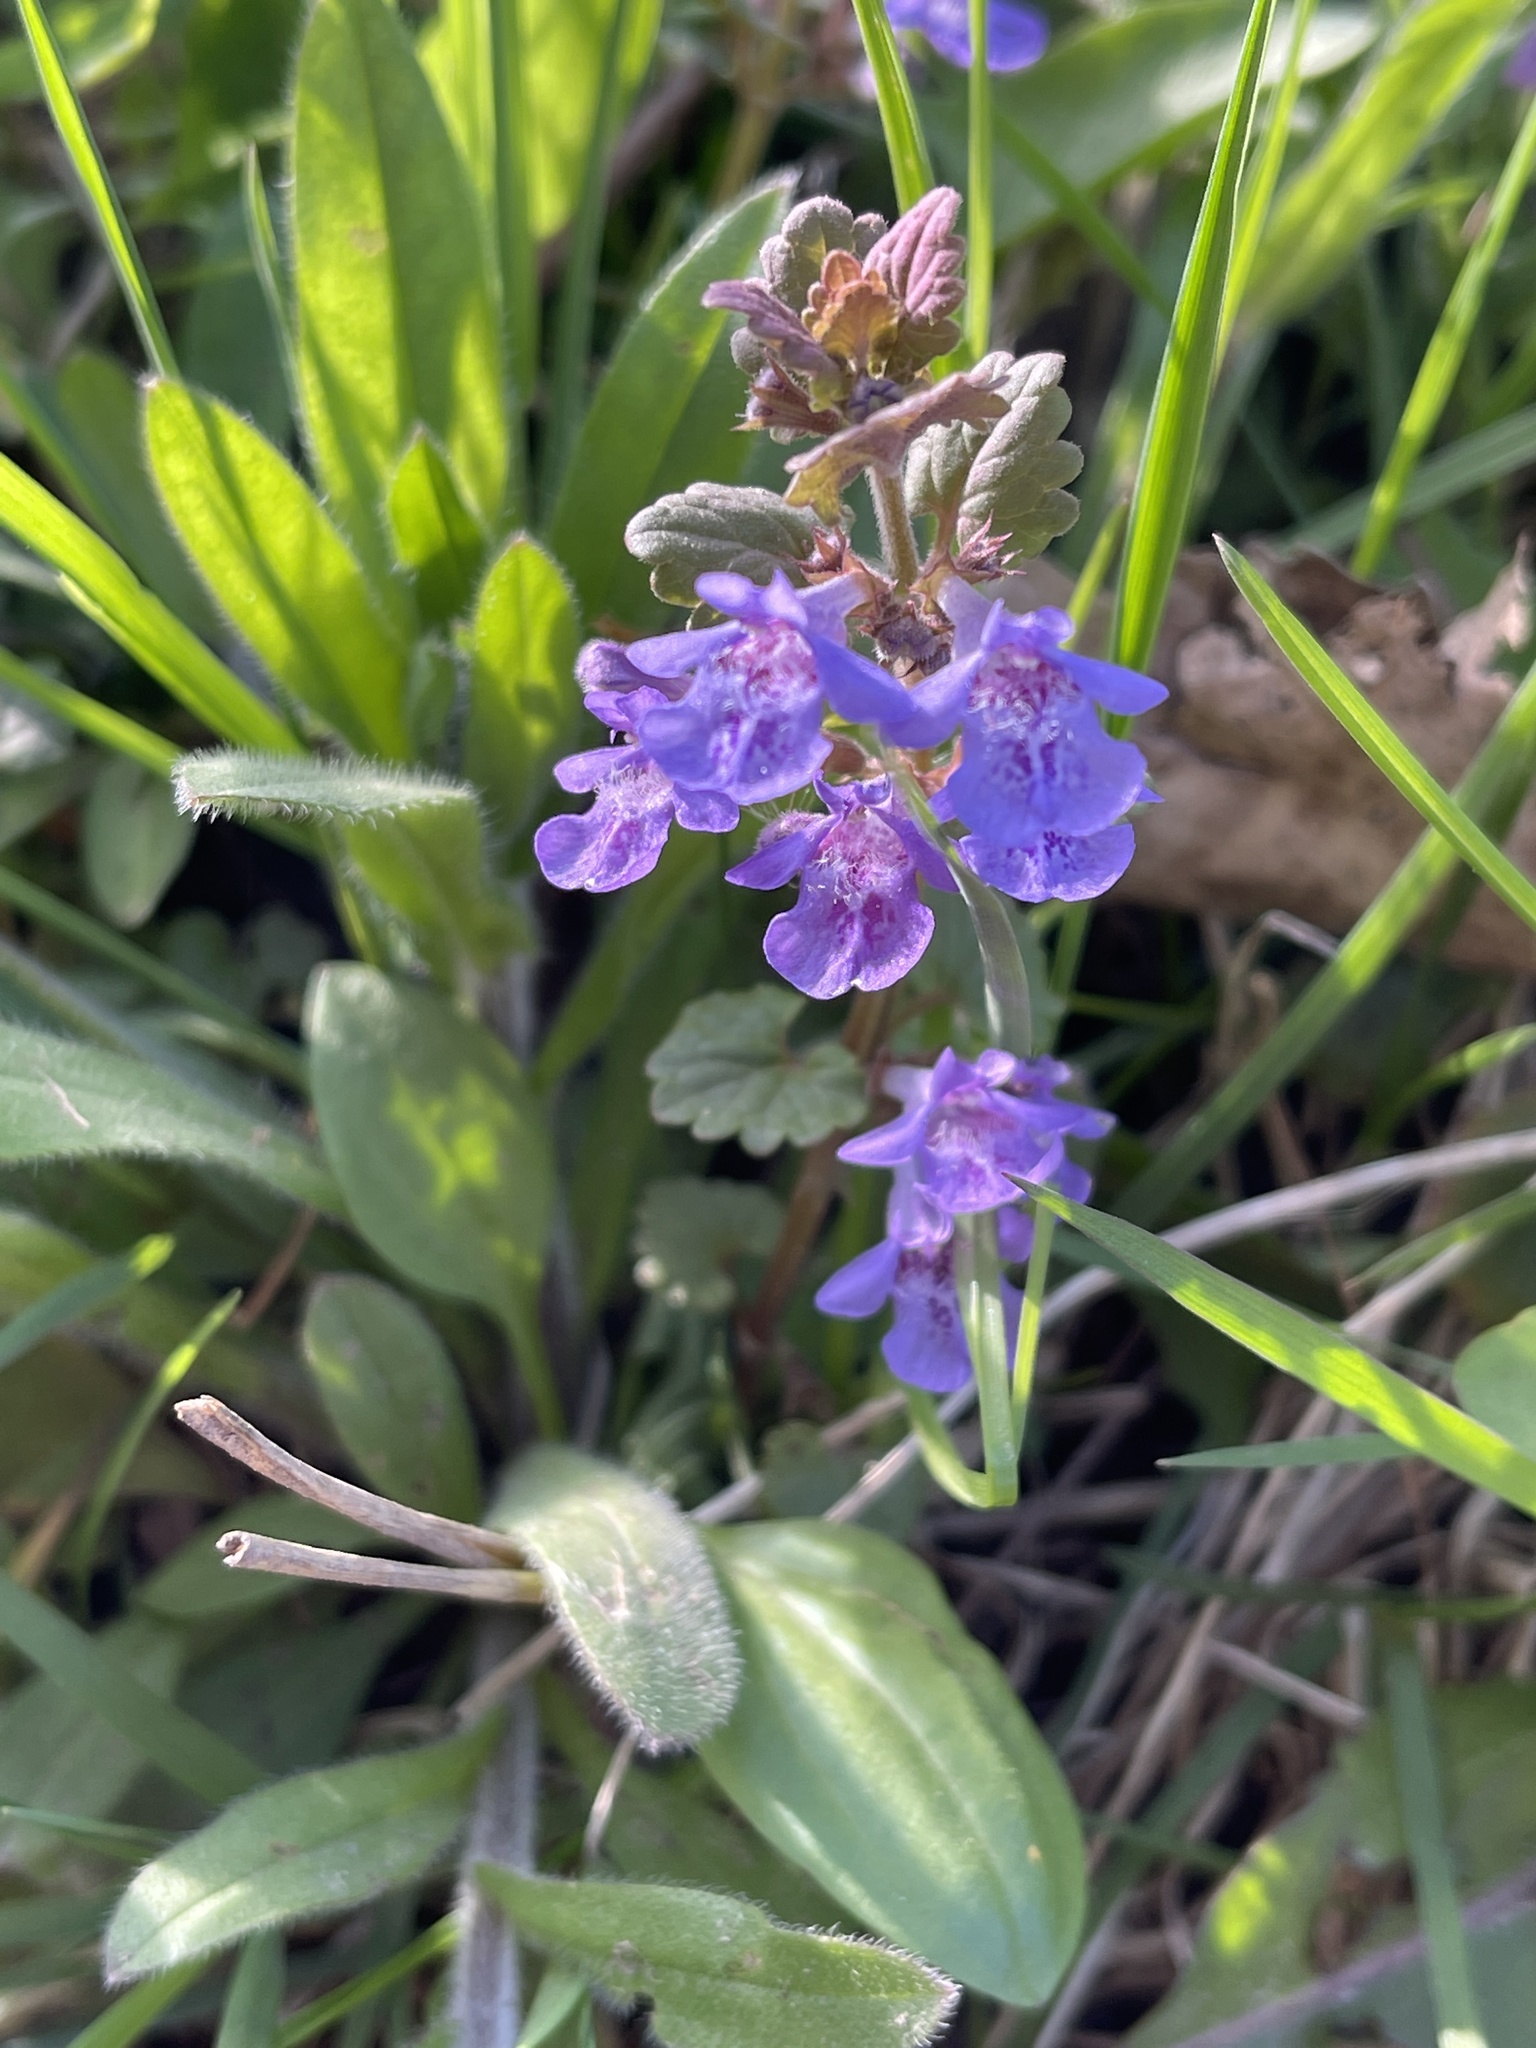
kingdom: Plantae
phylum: Tracheophyta
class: Magnoliopsida
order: Lamiales
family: Lamiaceae
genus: Glechoma
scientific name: Glechoma hederacea
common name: Ground ivy
